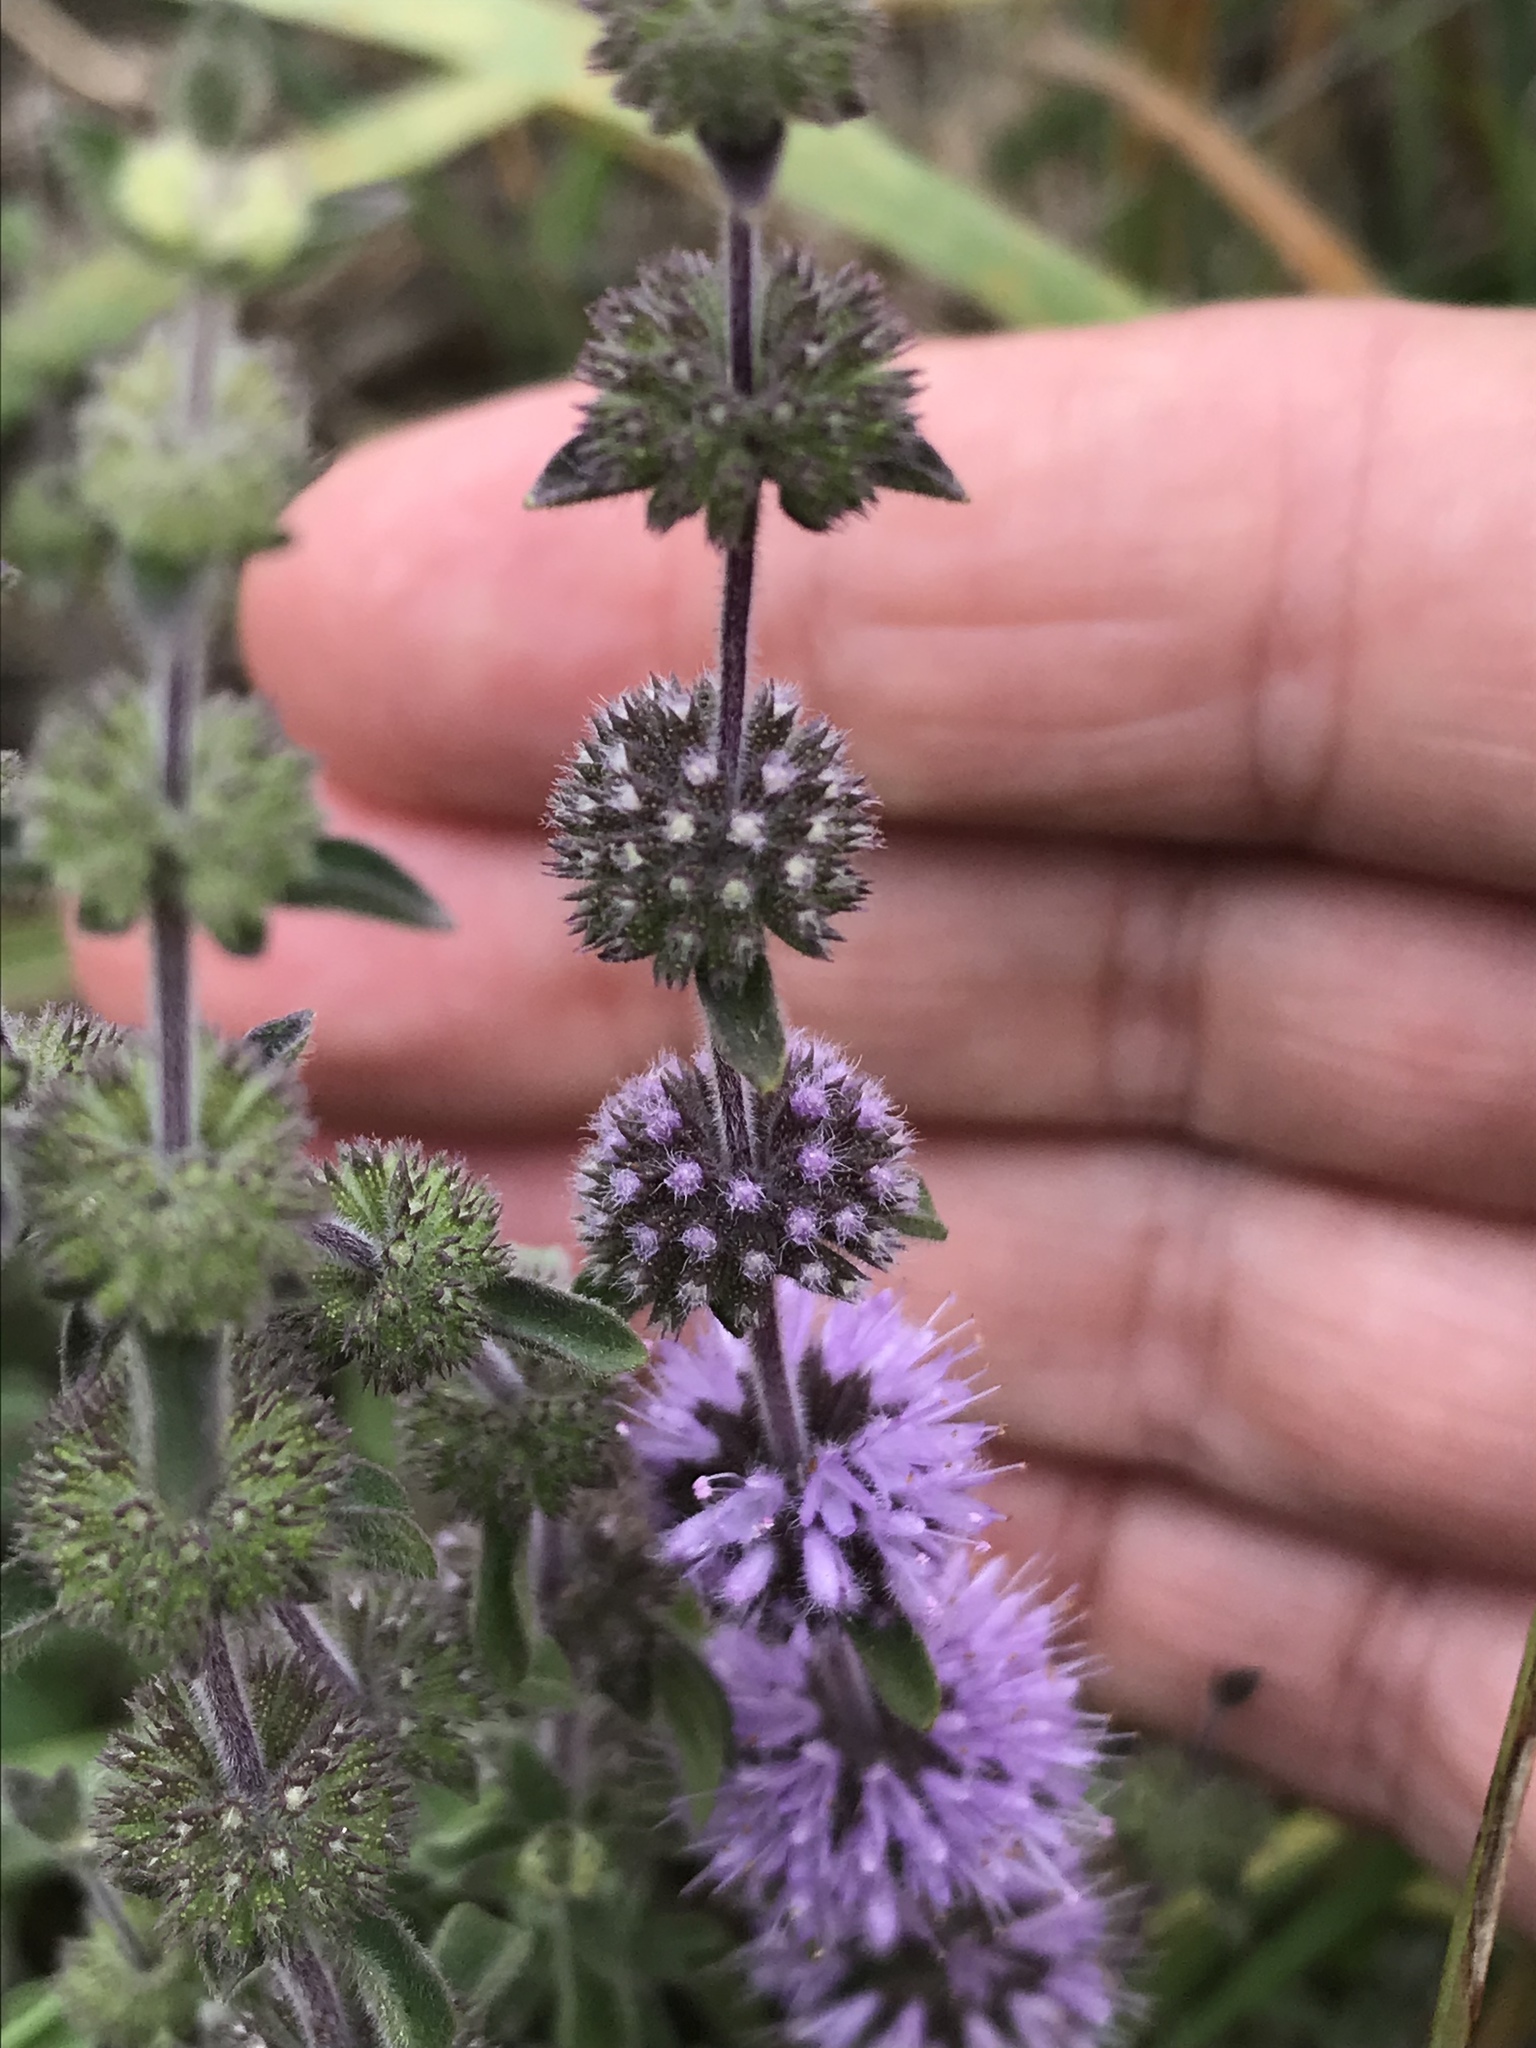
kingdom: Plantae
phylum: Tracheophyta
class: Magnoliopsida
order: Lamiales
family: Lamiaceae
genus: Mentha
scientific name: Mentha pulegium
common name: Pennyroyal
